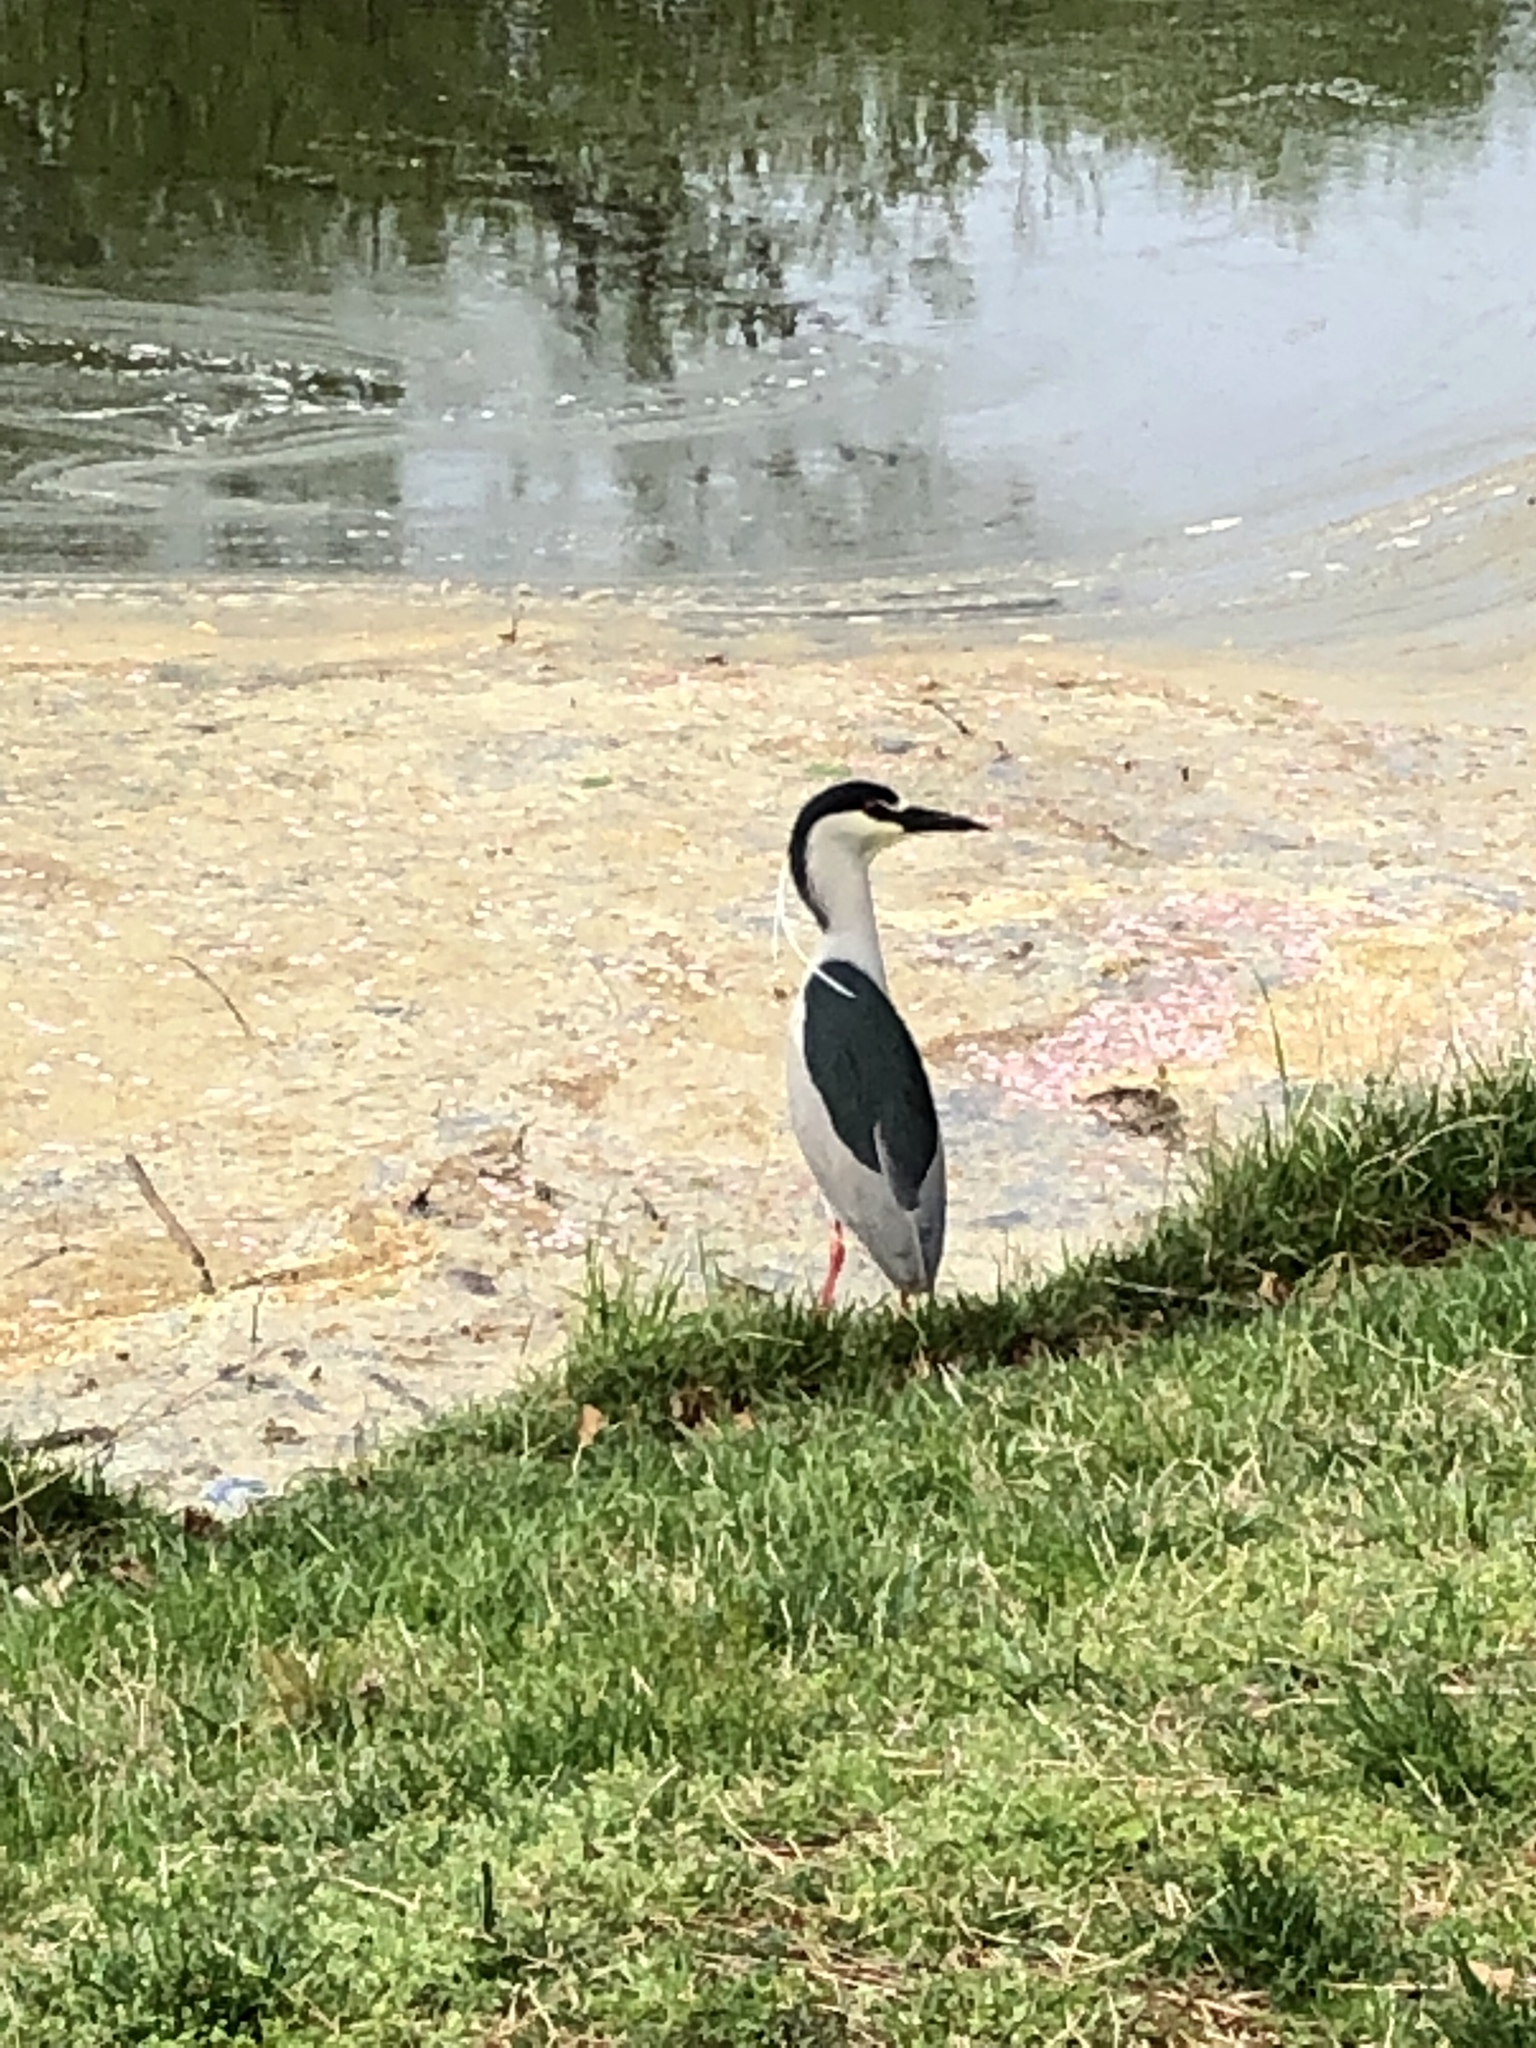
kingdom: Animalia
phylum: Chordata
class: Aves
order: Pelecaniformes
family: Ardeidae
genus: Nycticorax
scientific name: Nycticorax nycticorax
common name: Black-crowned night heron
